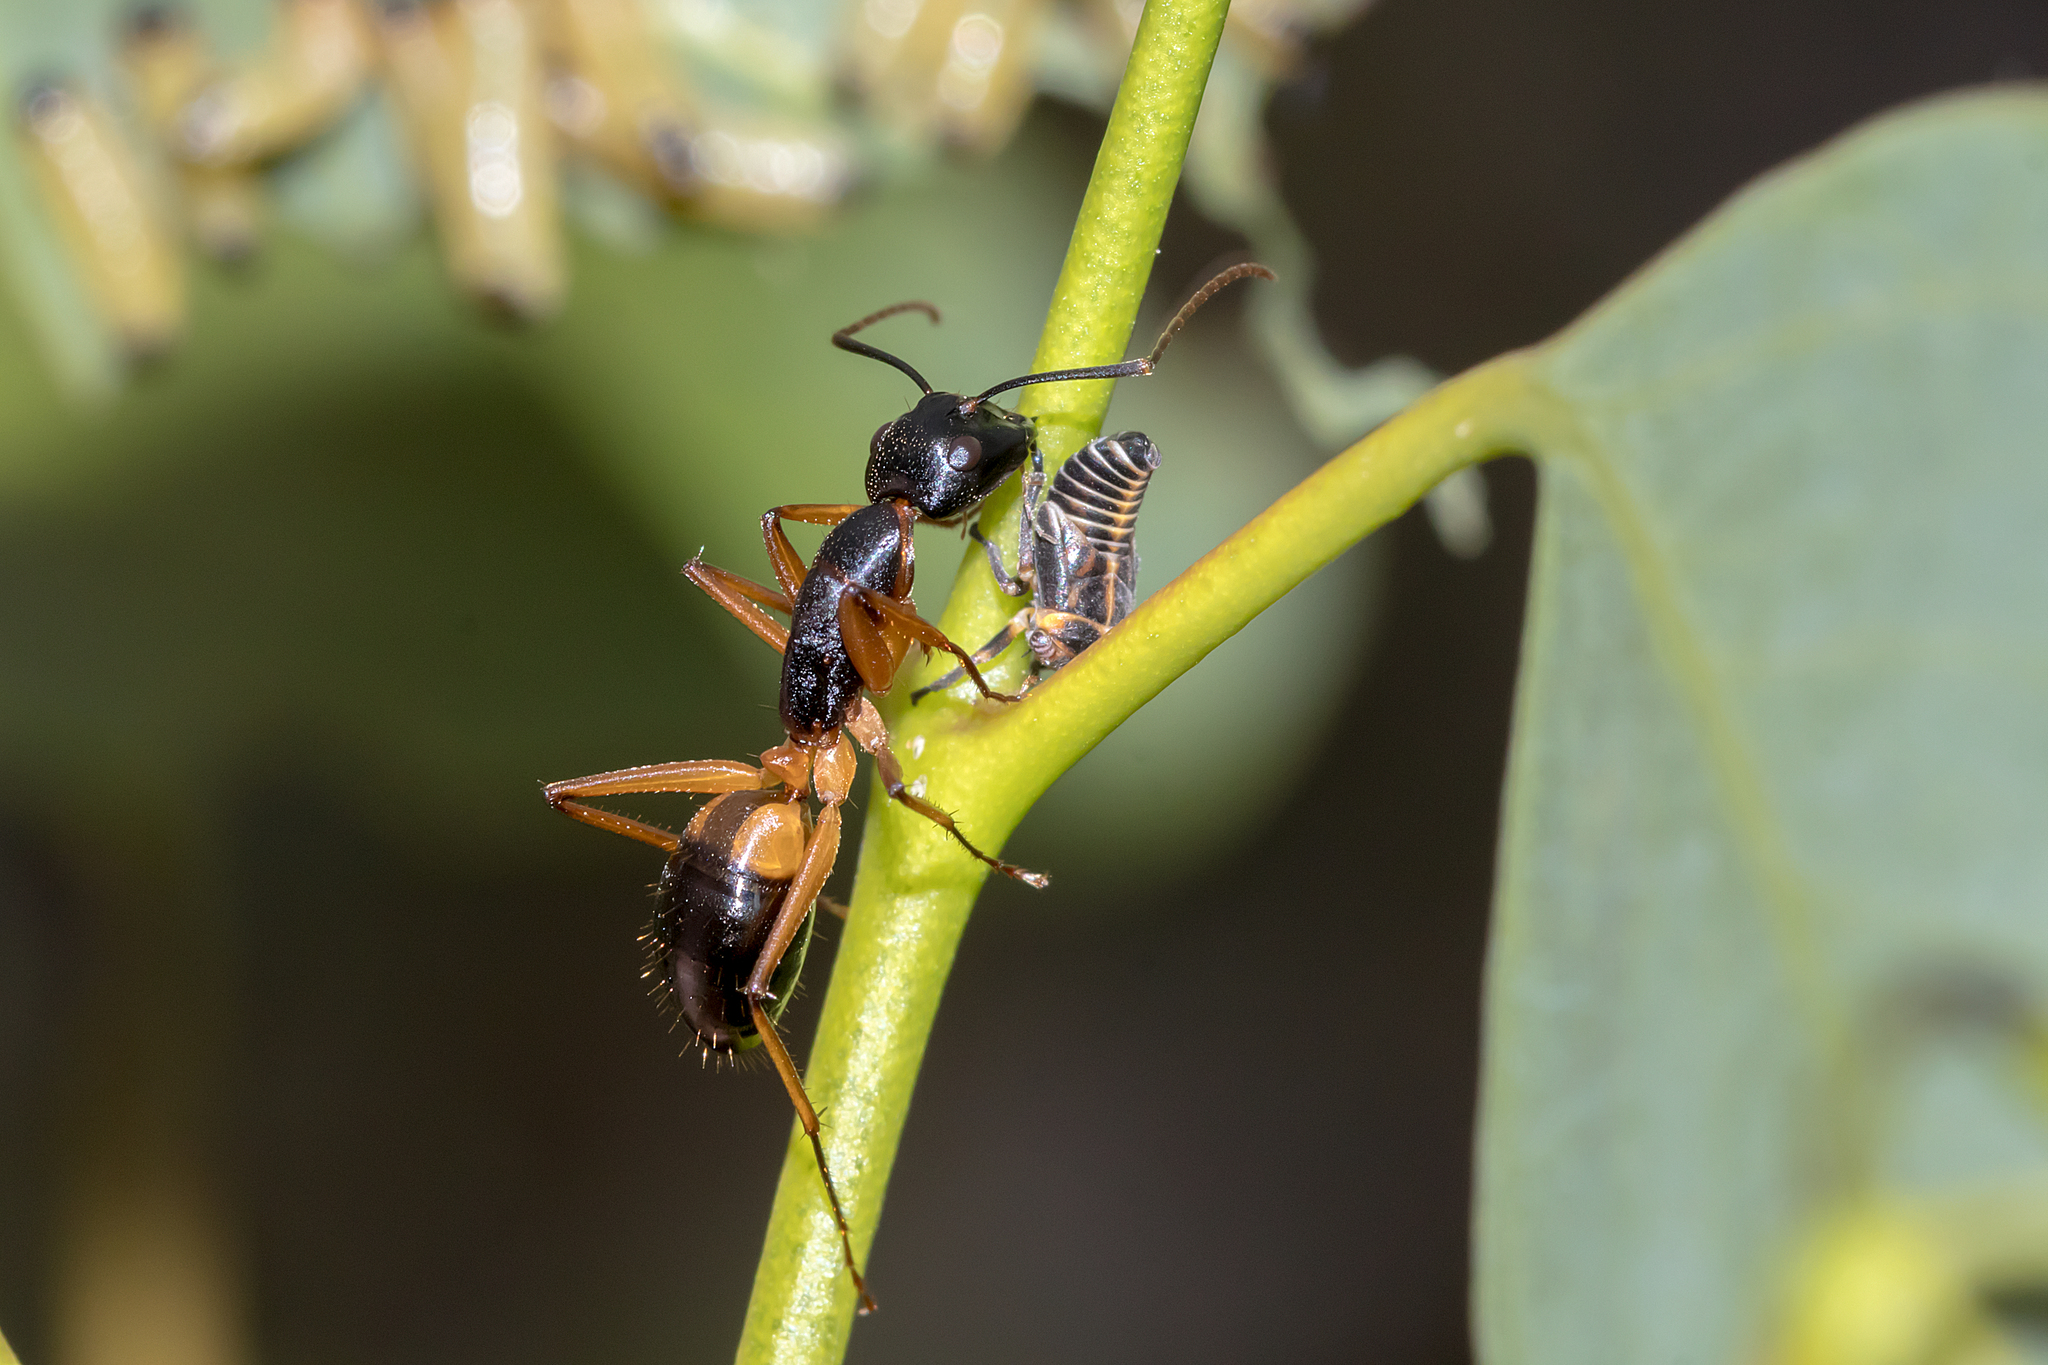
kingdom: Animalia
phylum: Arthropoda
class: Insecta
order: Hymenoptera
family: Formicidae
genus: Camponotus
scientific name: Camponotus consobrinus
